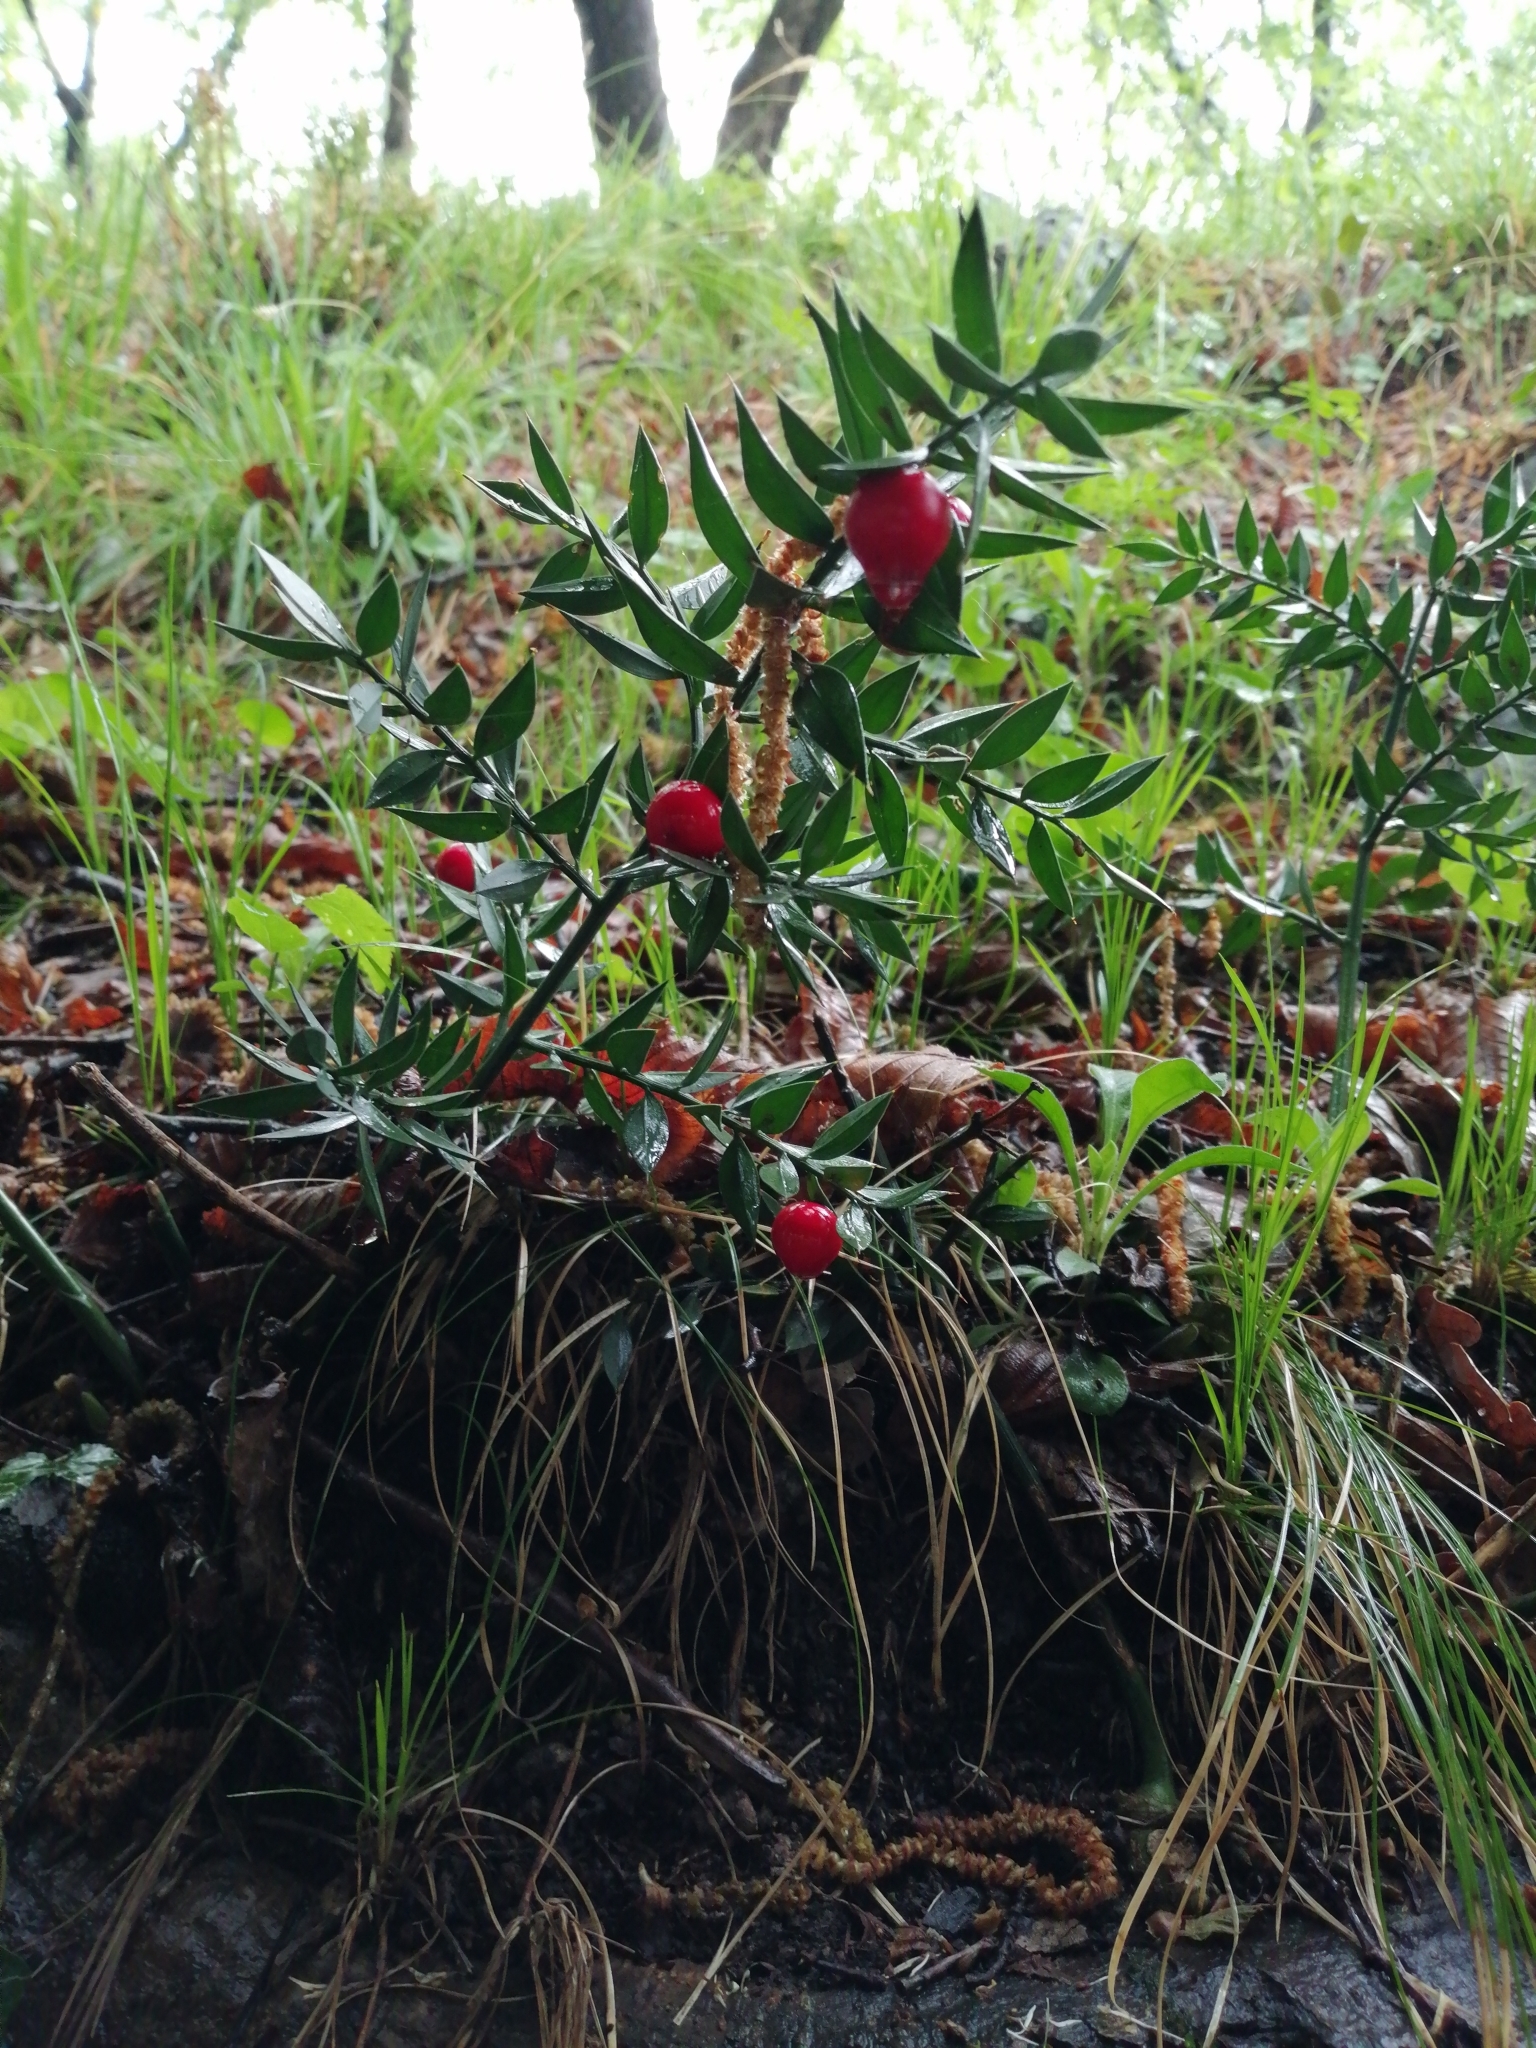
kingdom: Plantae
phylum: Tracheophyta
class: Liliopsida
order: Asparagales
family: Asparagaceae
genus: Ruscus
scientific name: Ruscus aculeatus
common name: Butcher's-broom
